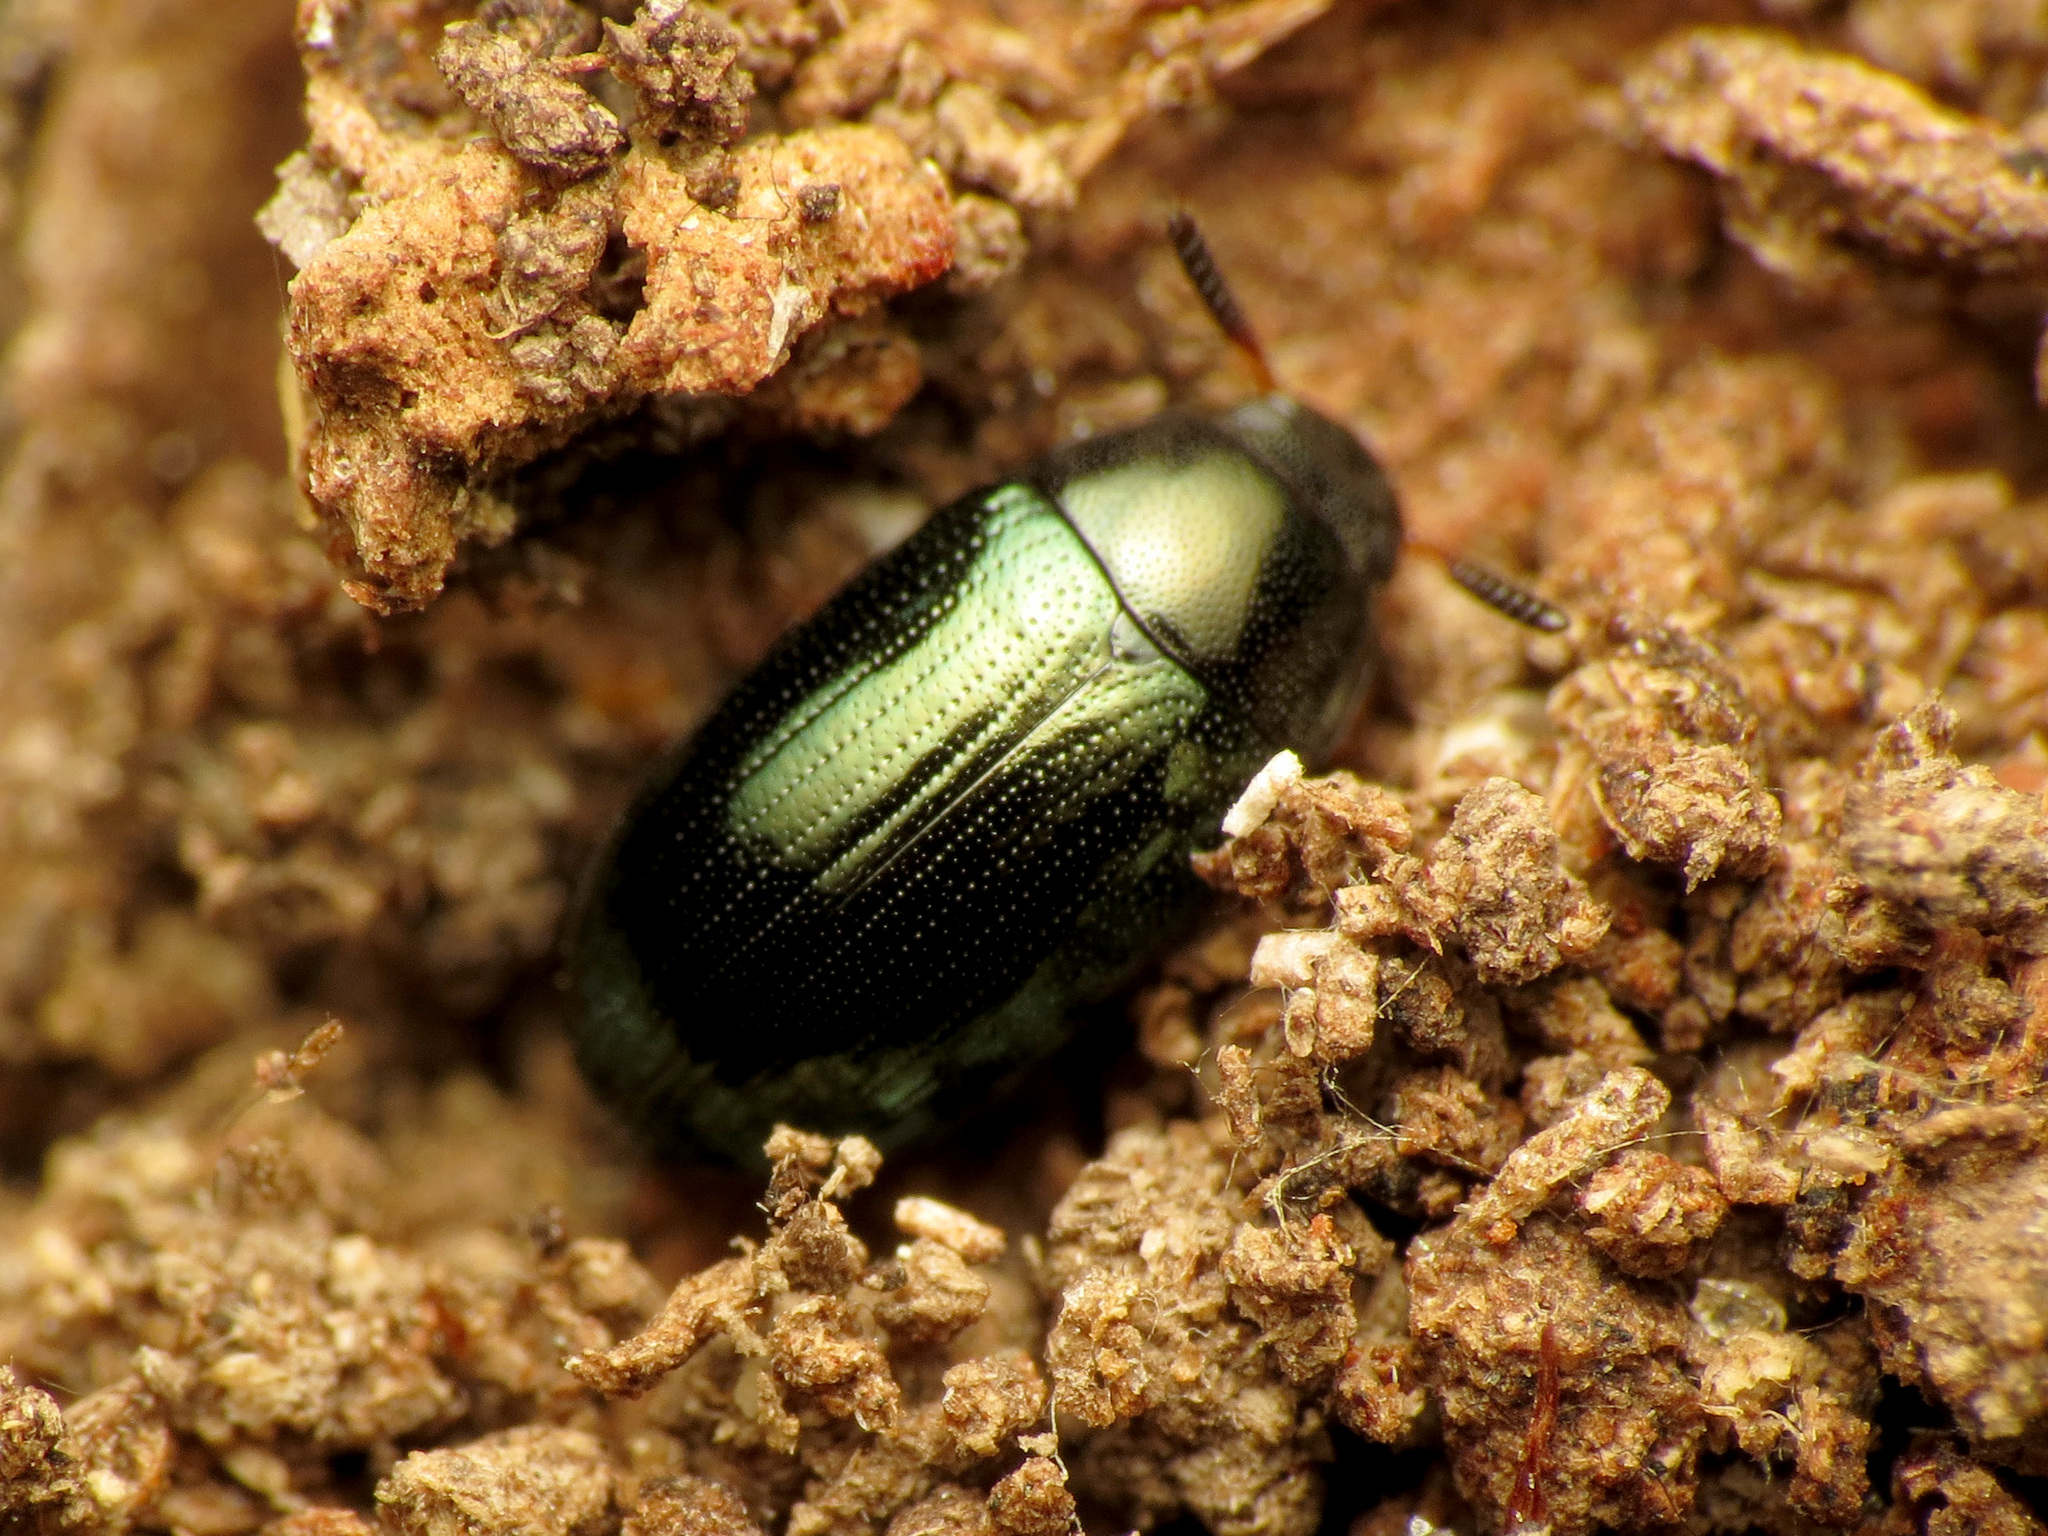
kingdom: Animalia
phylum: Arthropoda
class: Insecta
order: Coleoptera
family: Tenebrionidae
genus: Neomida
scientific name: Neomida bicornis
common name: Two-horned darkling beetle
